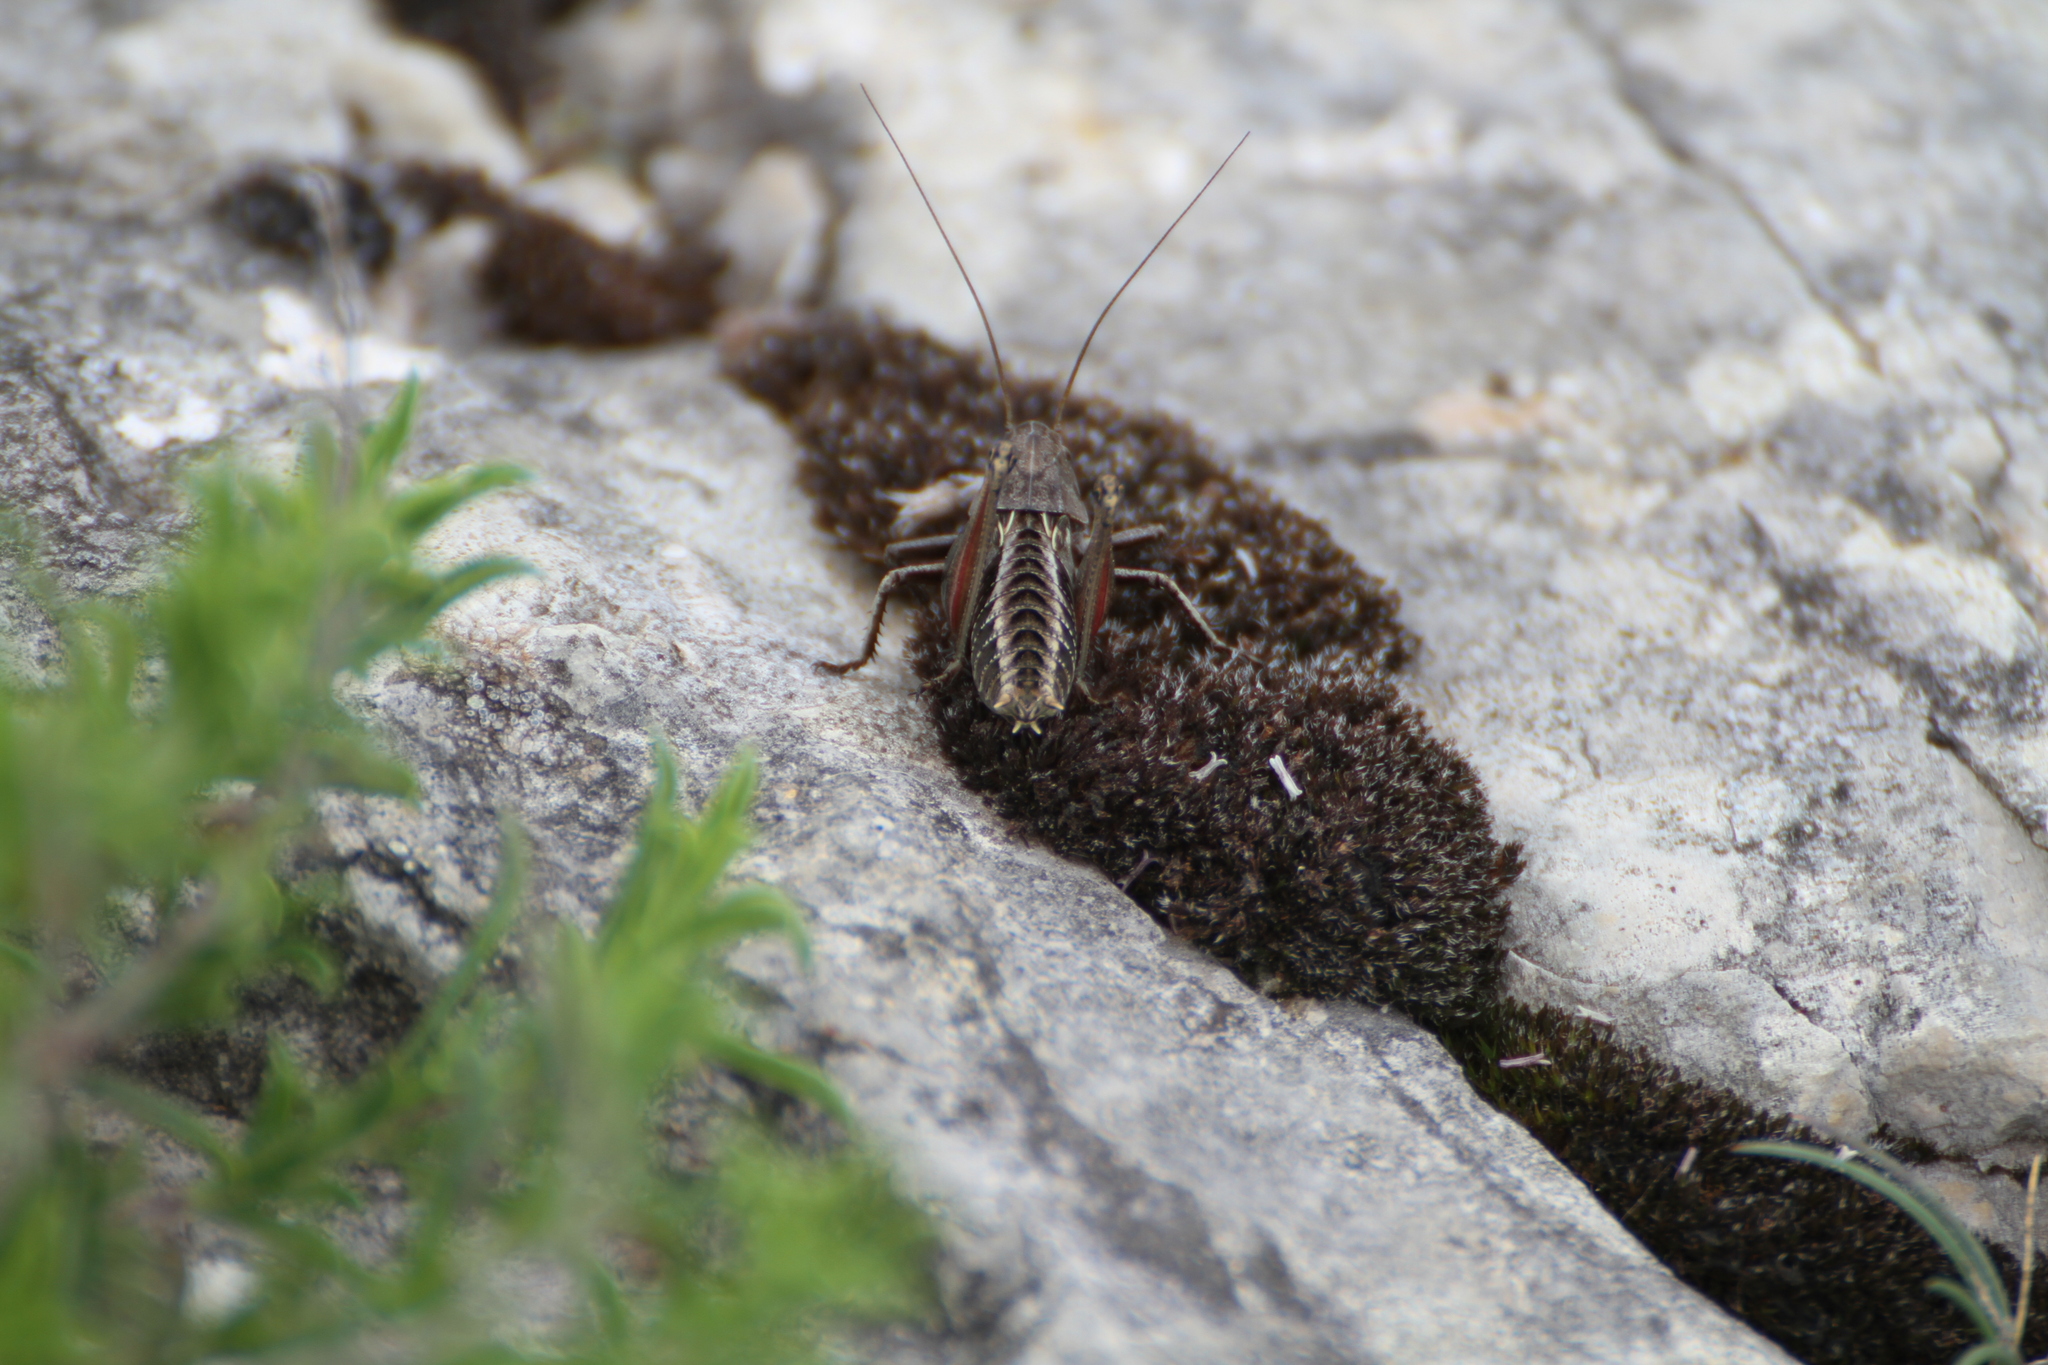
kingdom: Animalia
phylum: Arthropoda
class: Insecta
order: Orthoptera
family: Tettigoniidae
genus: Decticus
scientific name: Decticus verrucivorus
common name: Wart-biter
